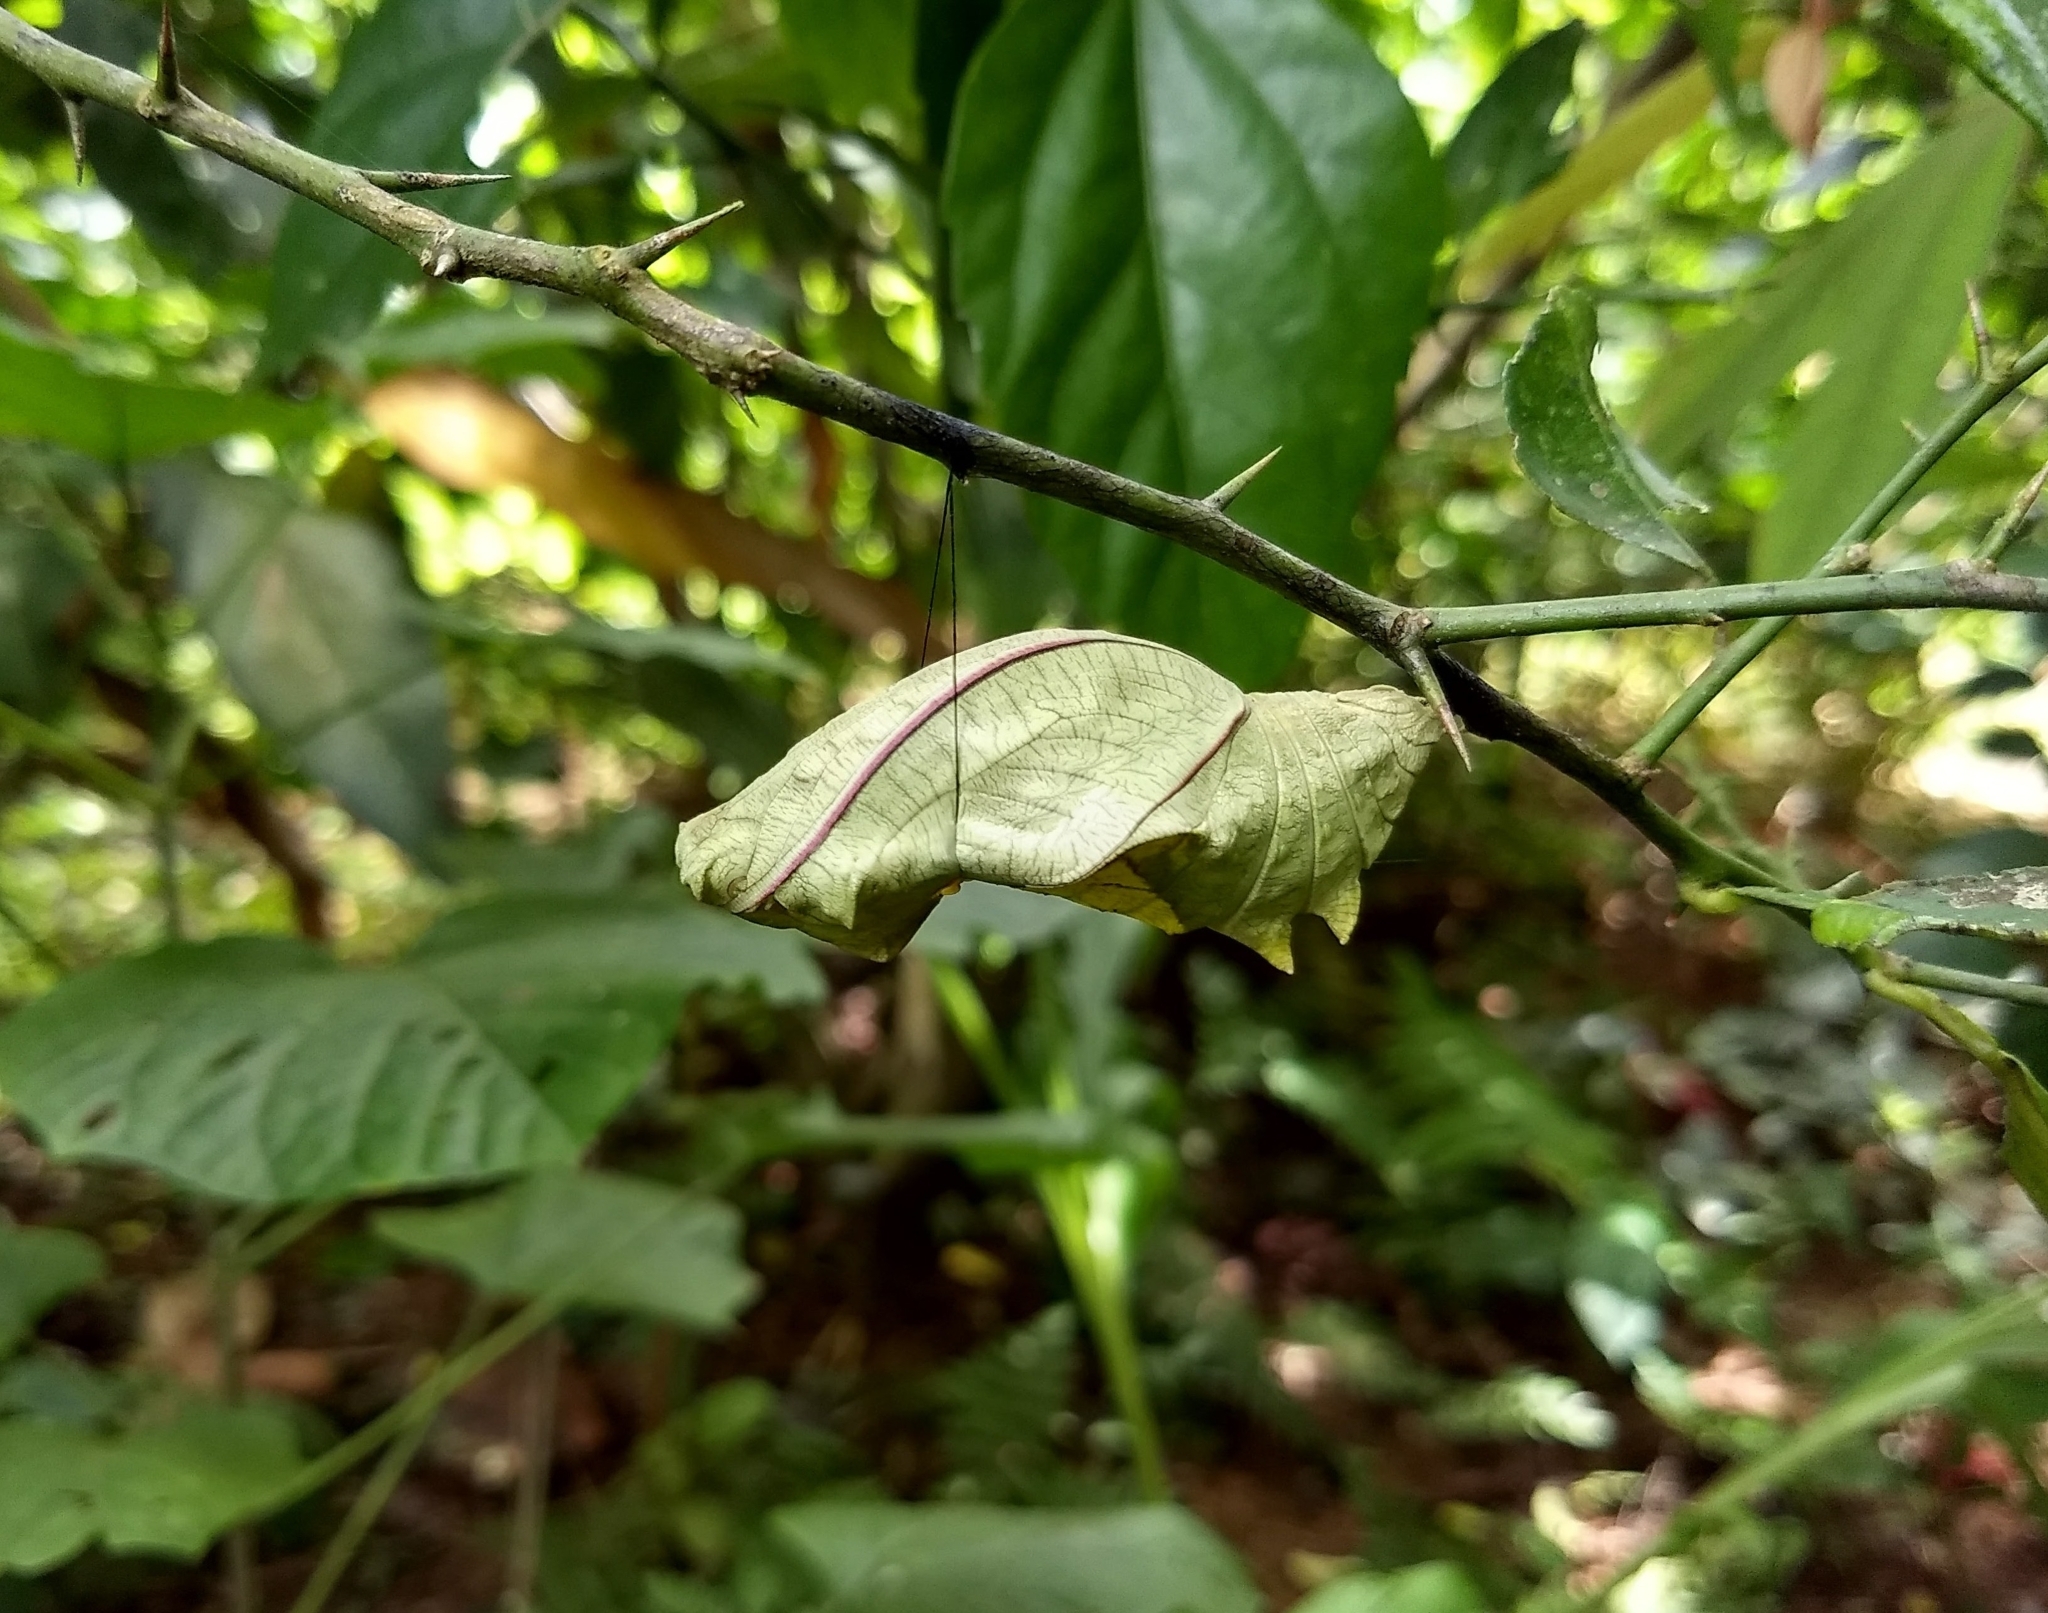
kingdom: Animalia
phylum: Arthropoda
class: Insecta
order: Lepidoptera
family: Papilionidae
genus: Troides
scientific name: Troides minos
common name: Malabar birdwing
